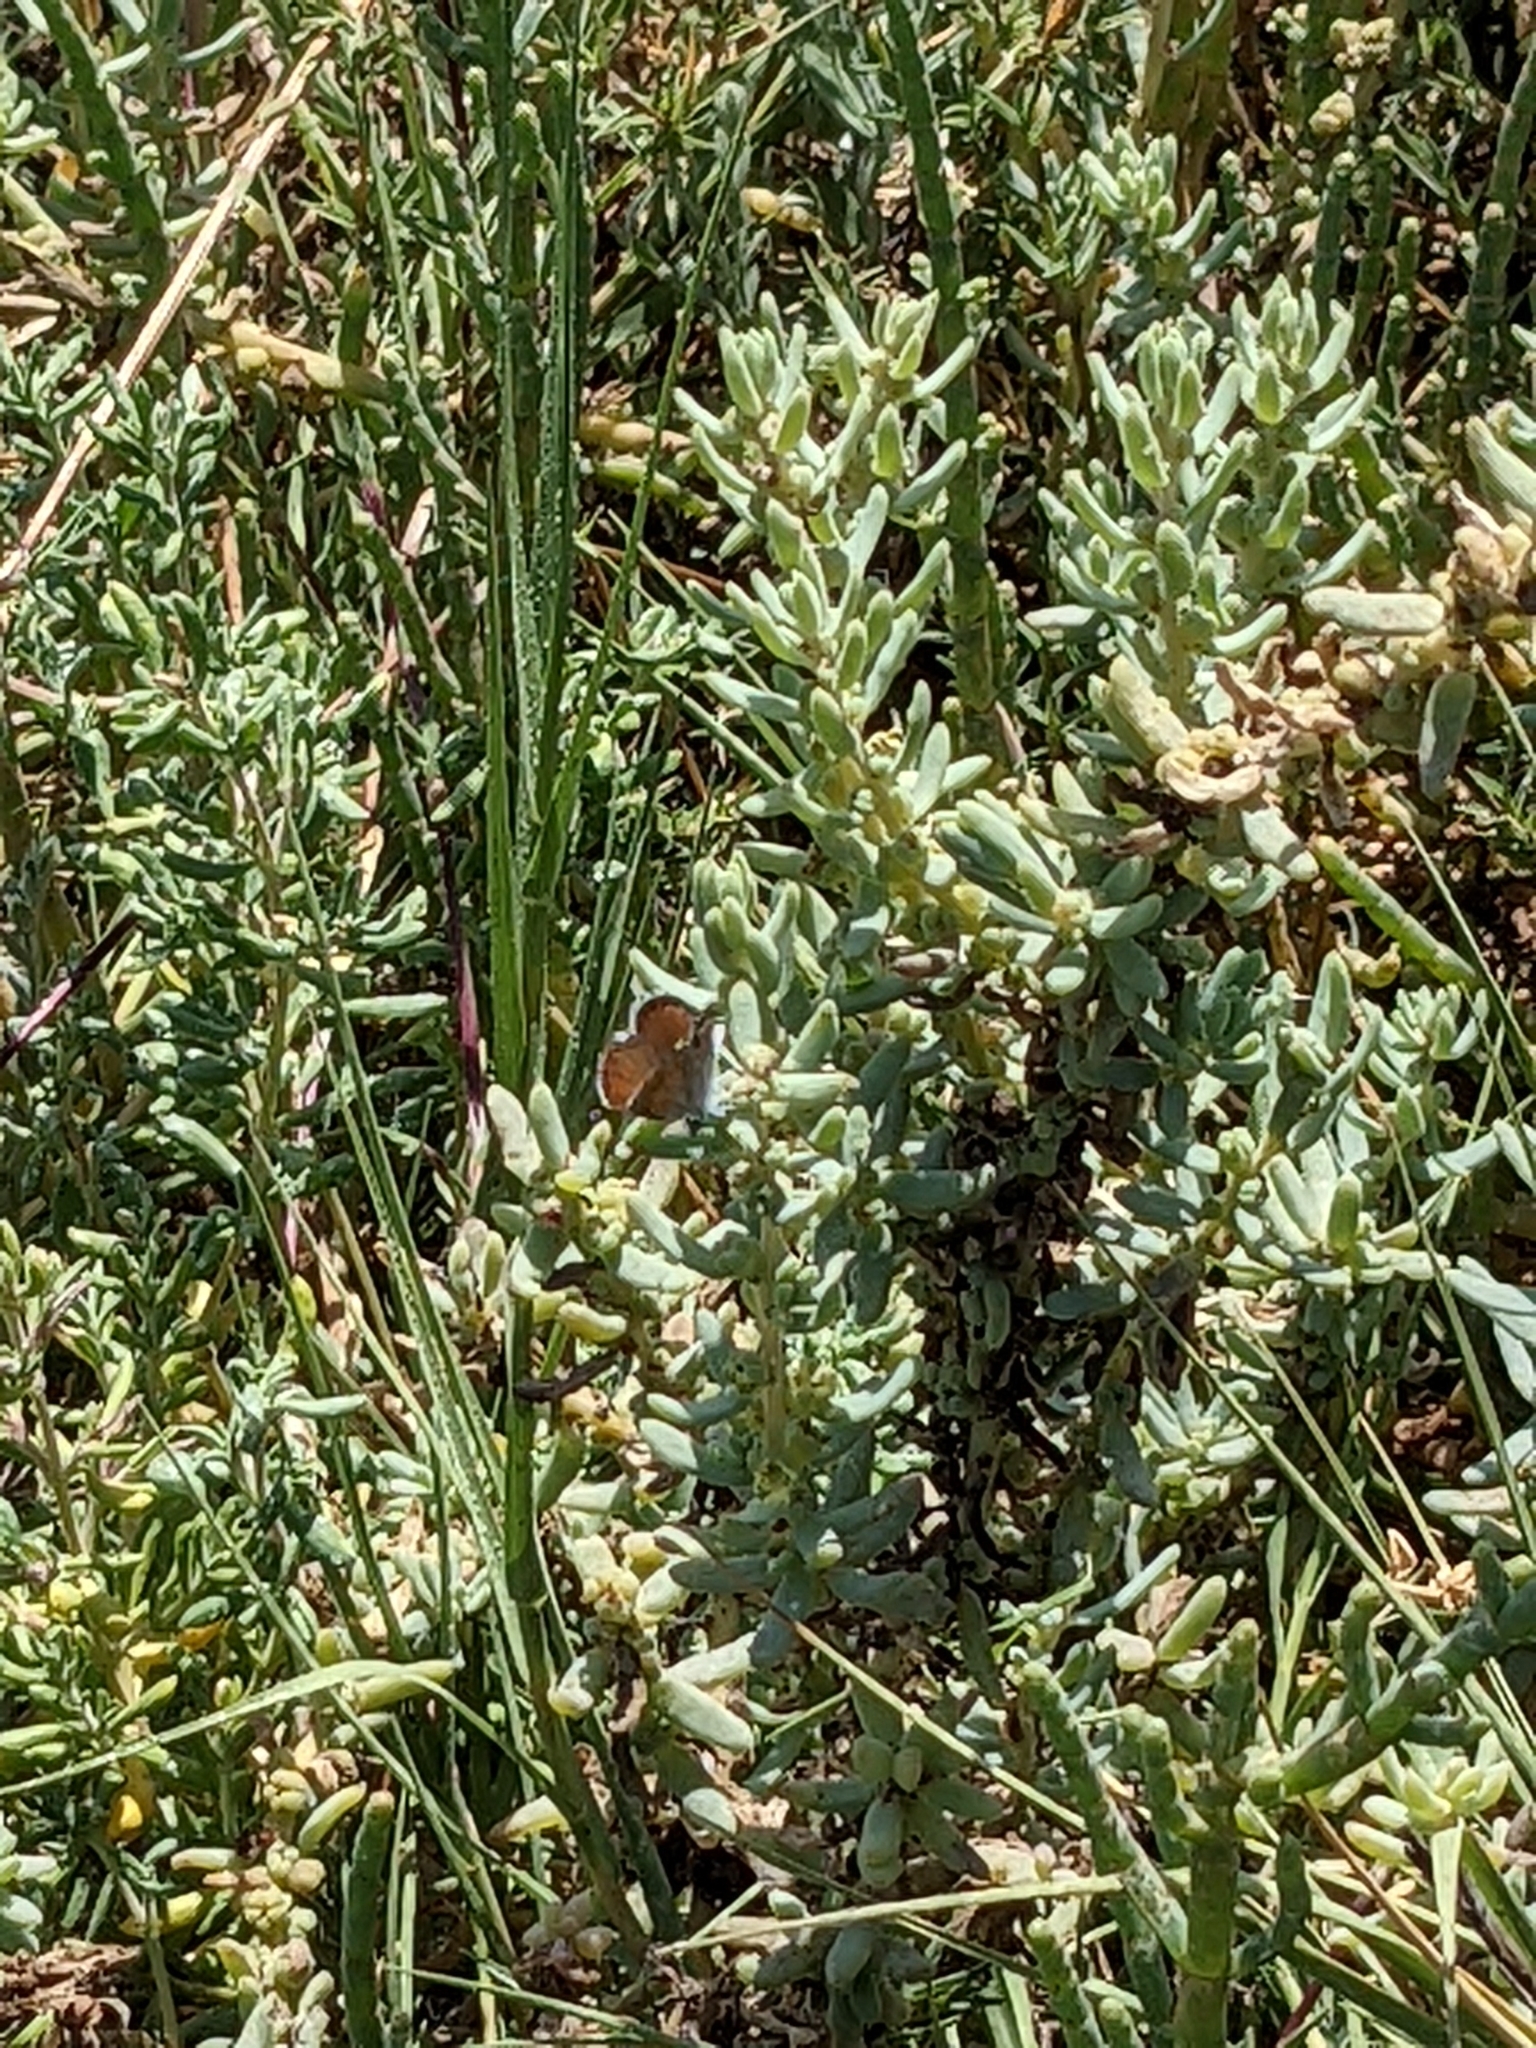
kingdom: Plantae
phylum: Tracheophyta
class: Magnoliopsida
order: Caryophyllales
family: Amaranthaceae
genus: Suaeda
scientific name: Suaeda taxifolia
